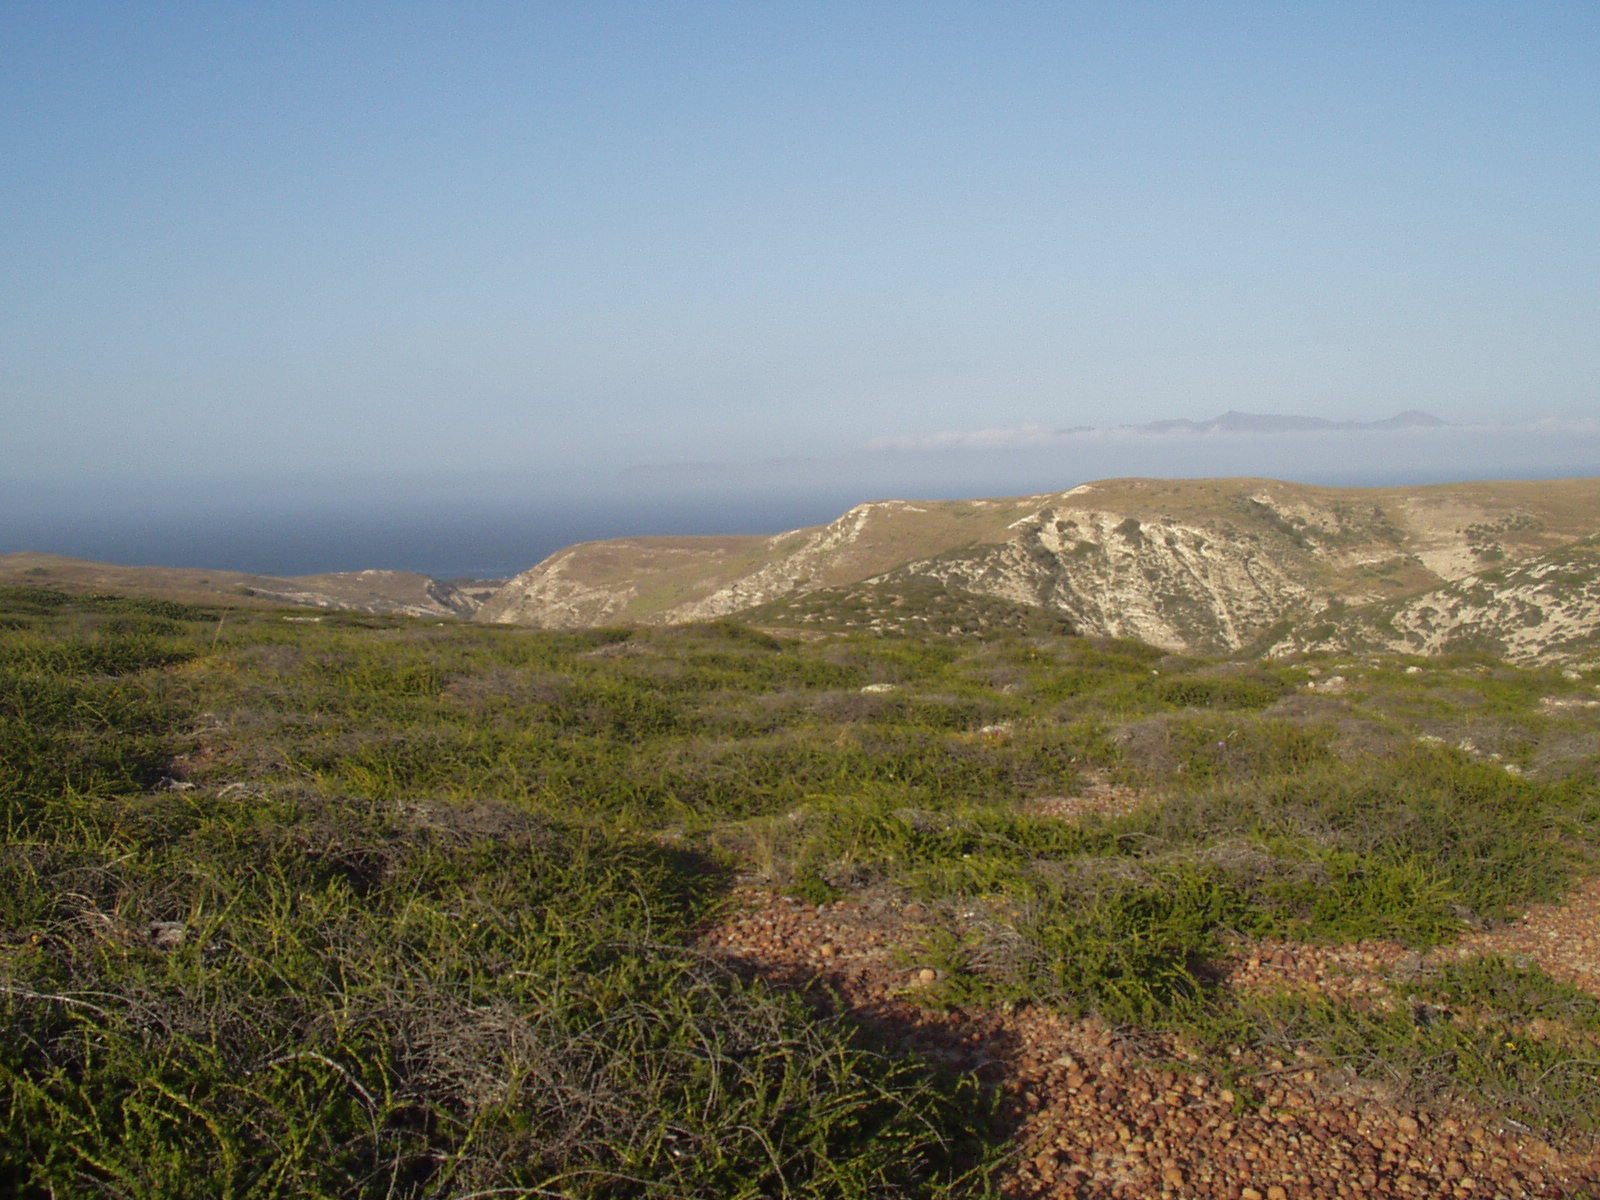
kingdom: Plantae
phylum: Tracheophyta
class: Magnoliopsida
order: Rosales
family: Rosaceae
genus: Adenostoma
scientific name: Adenostoma fasciculatum
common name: Chamise
